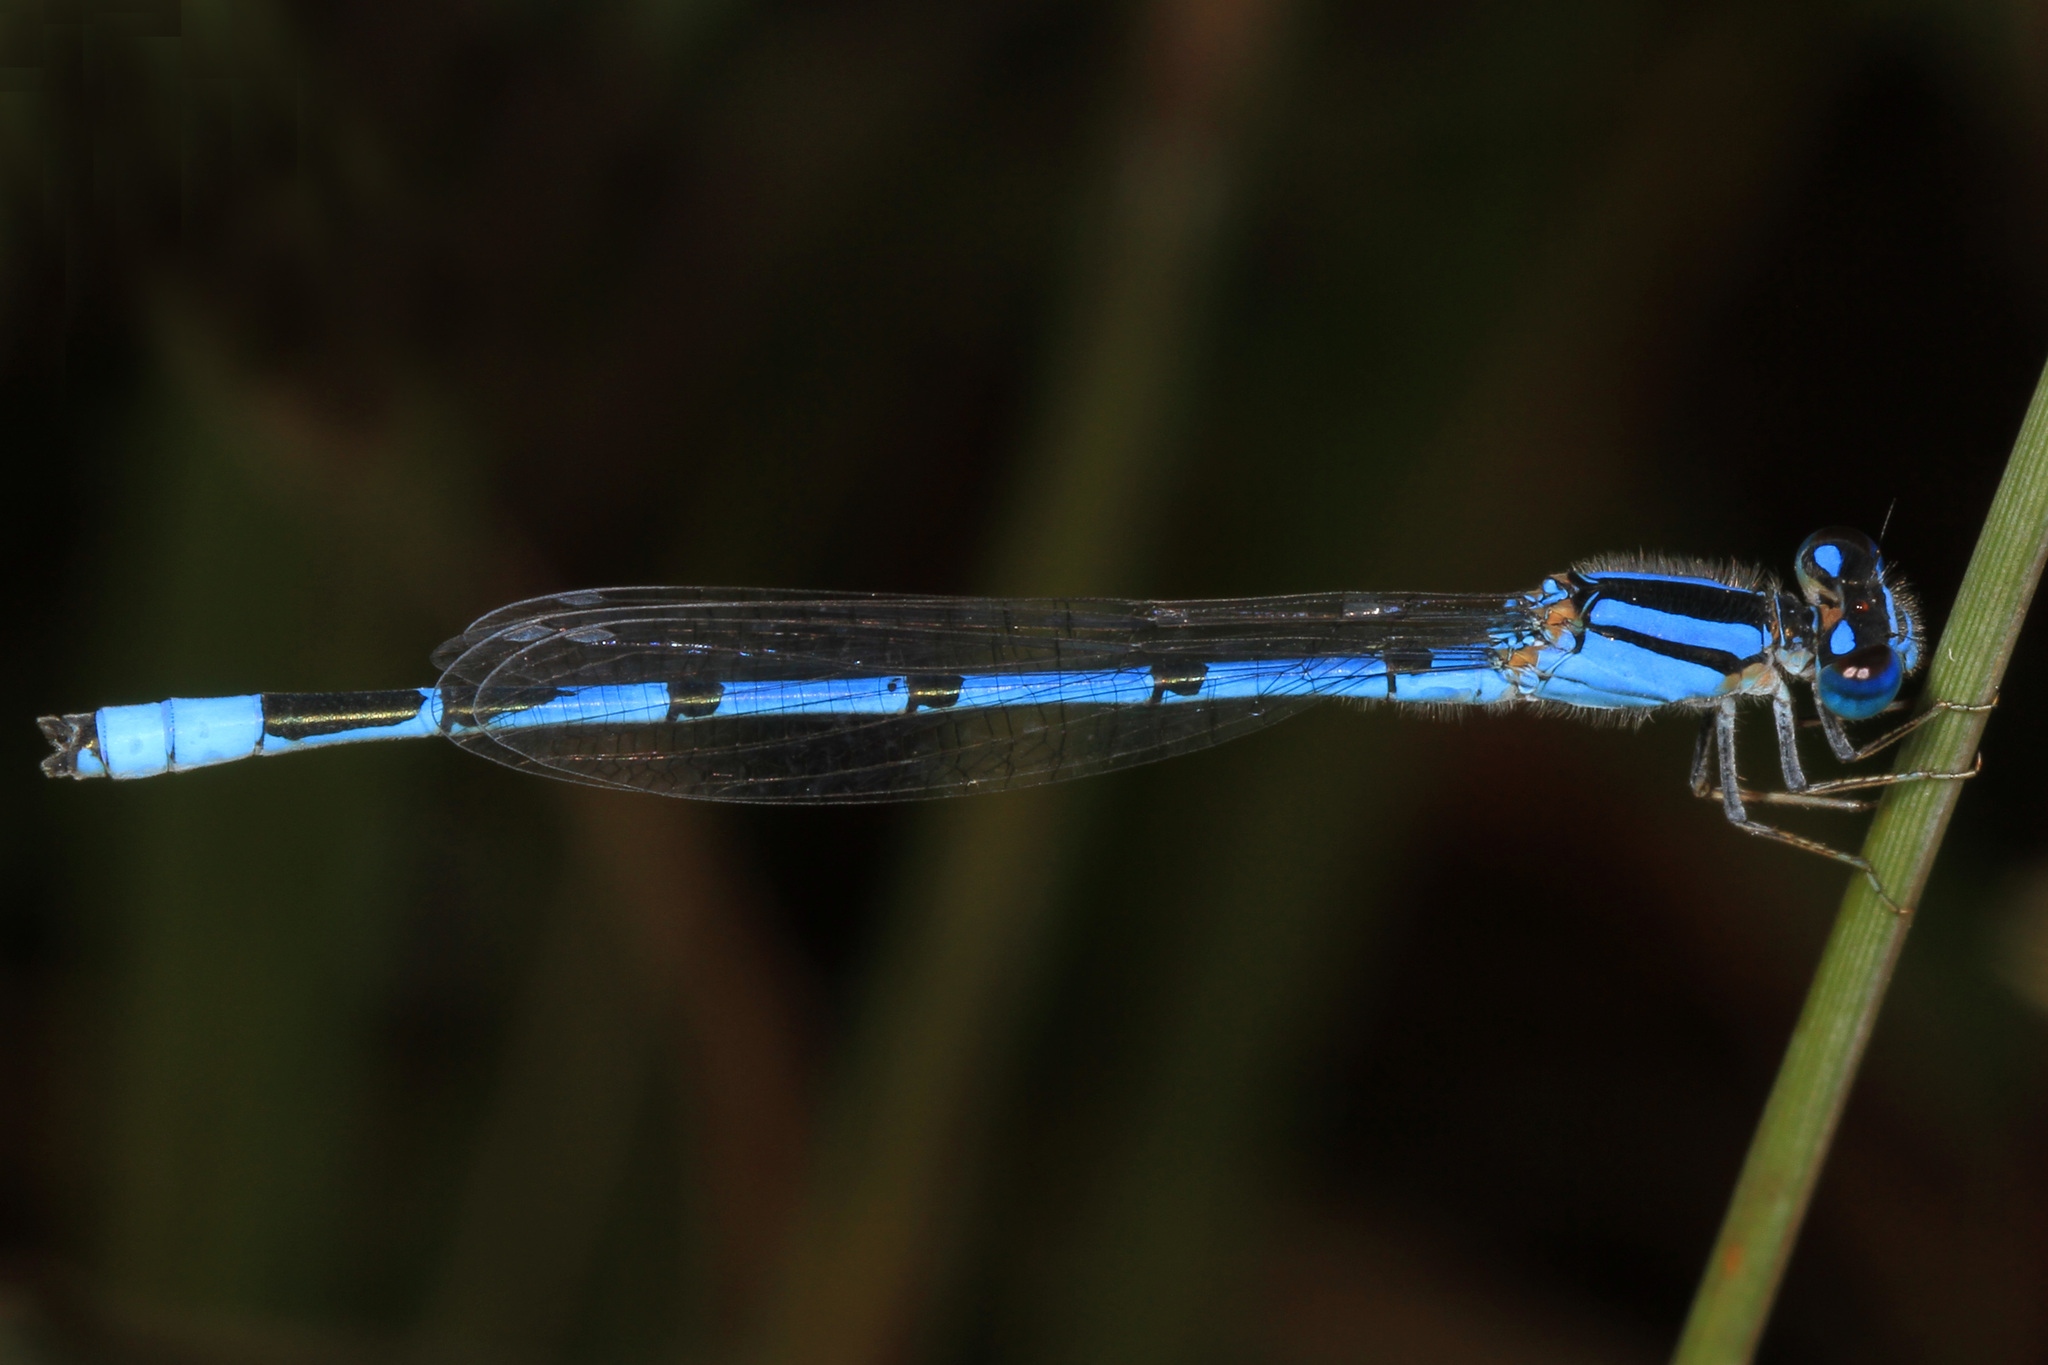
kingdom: Animalia
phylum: Arthropoda
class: Insecta
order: Odonata
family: Coenagrionidae
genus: Enallagma
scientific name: Enallagma civile
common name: Damselfly
